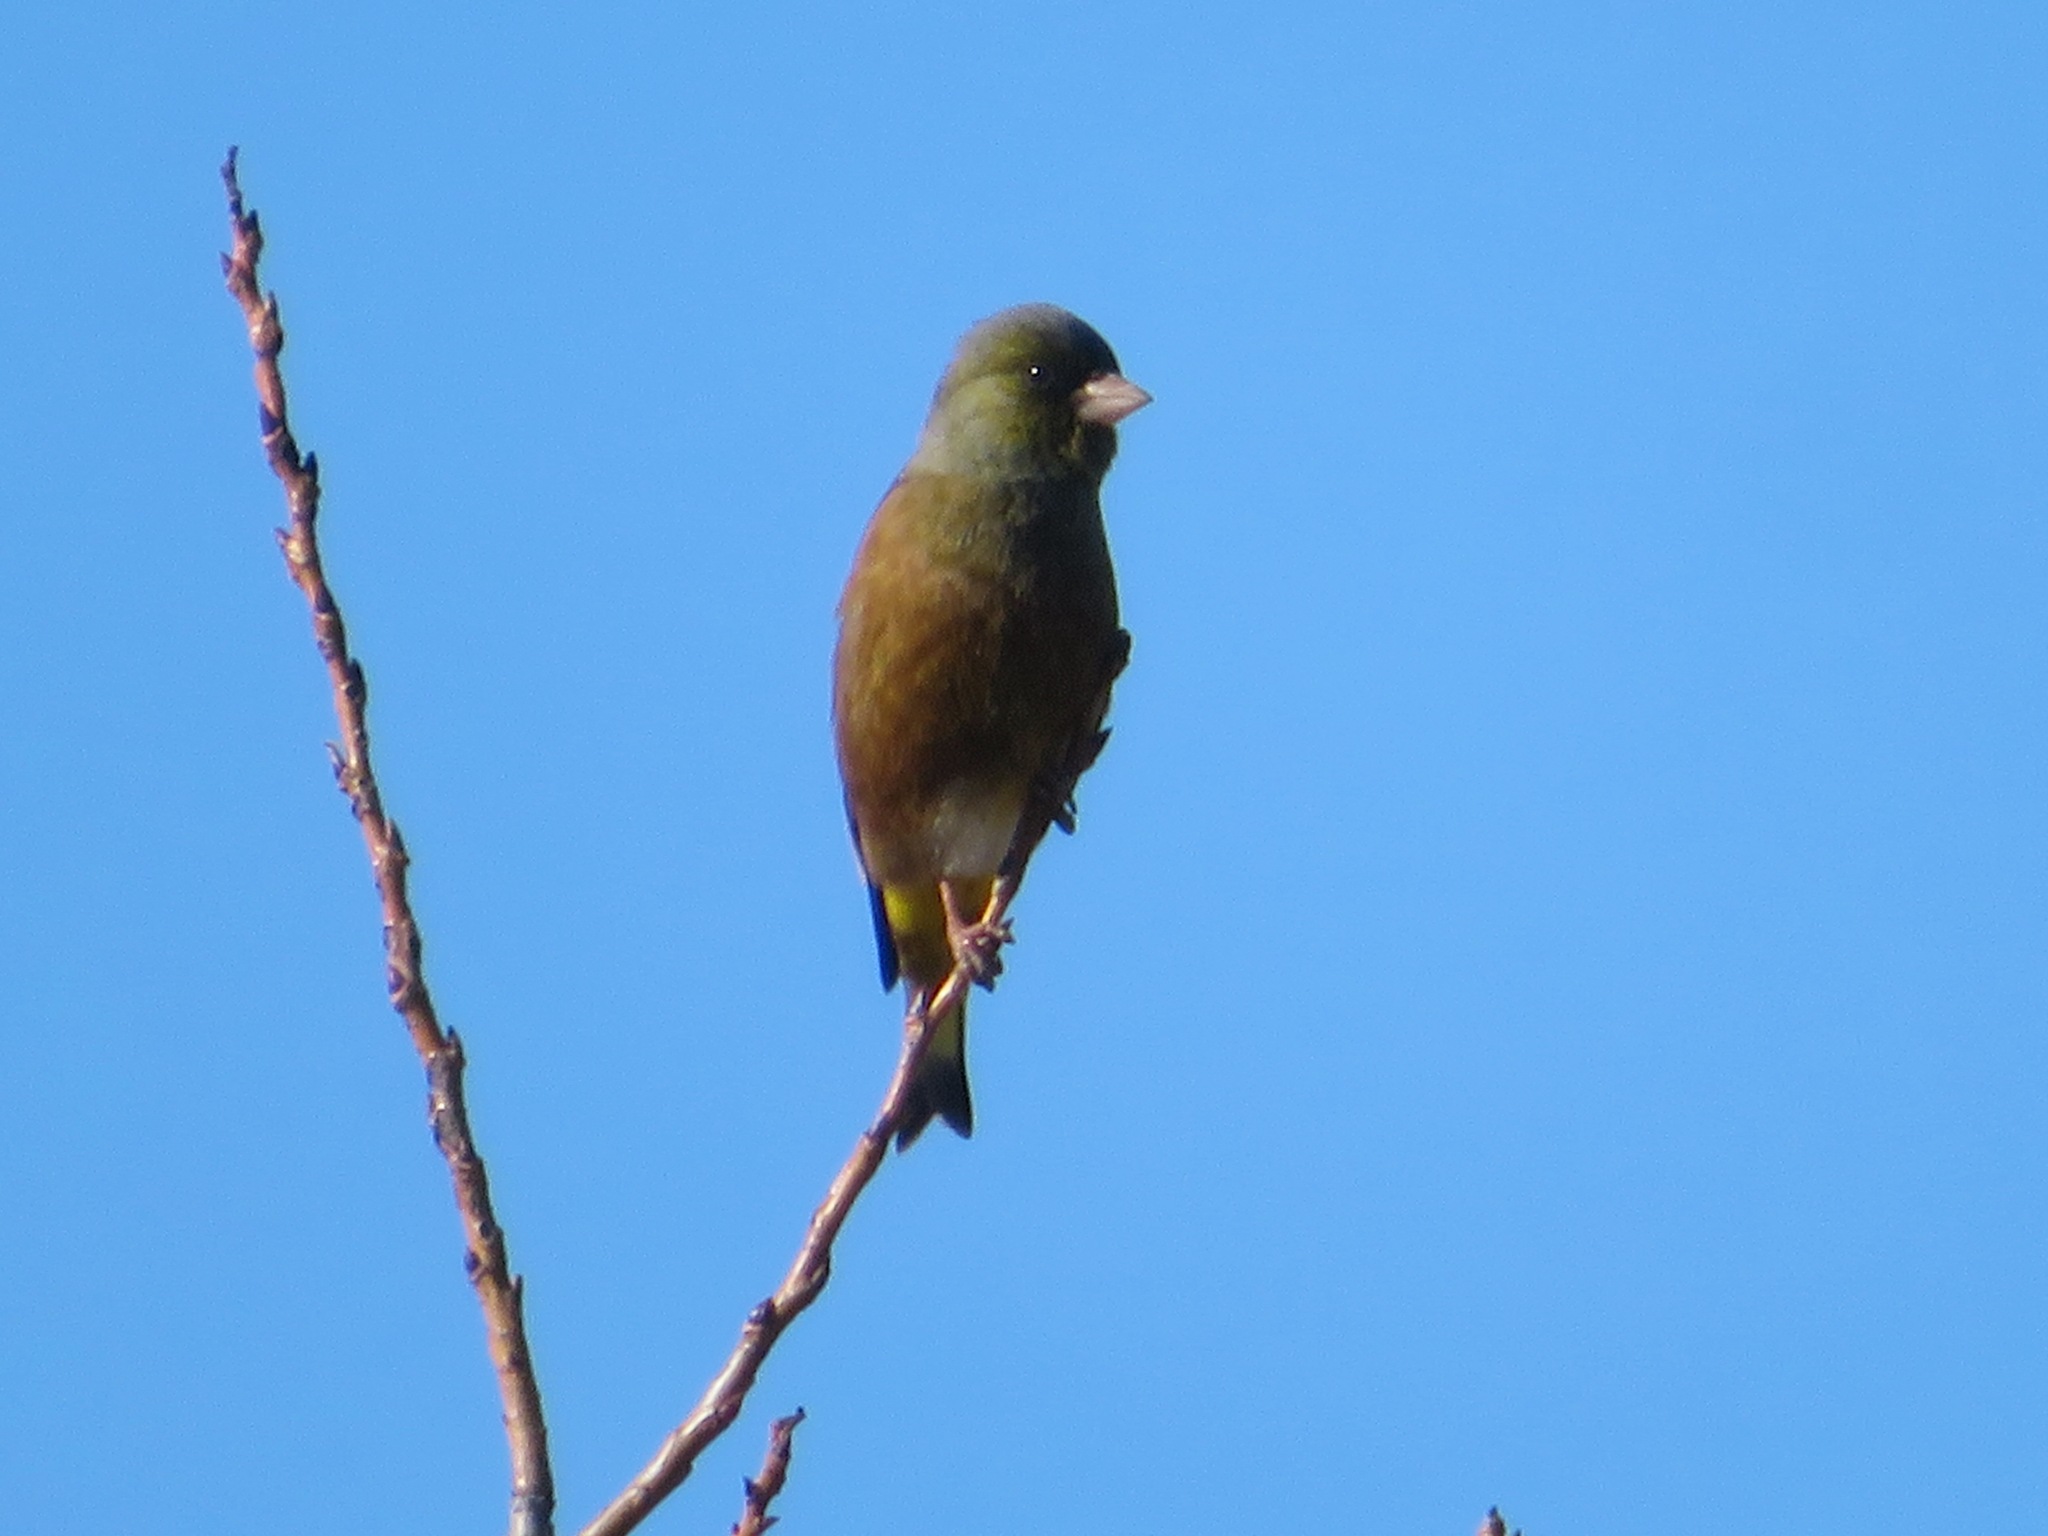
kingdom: Plantae
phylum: Tracheophyta
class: Liliopsida
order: Poales
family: Poaceae
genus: Chloris
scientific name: Chloris sinica
